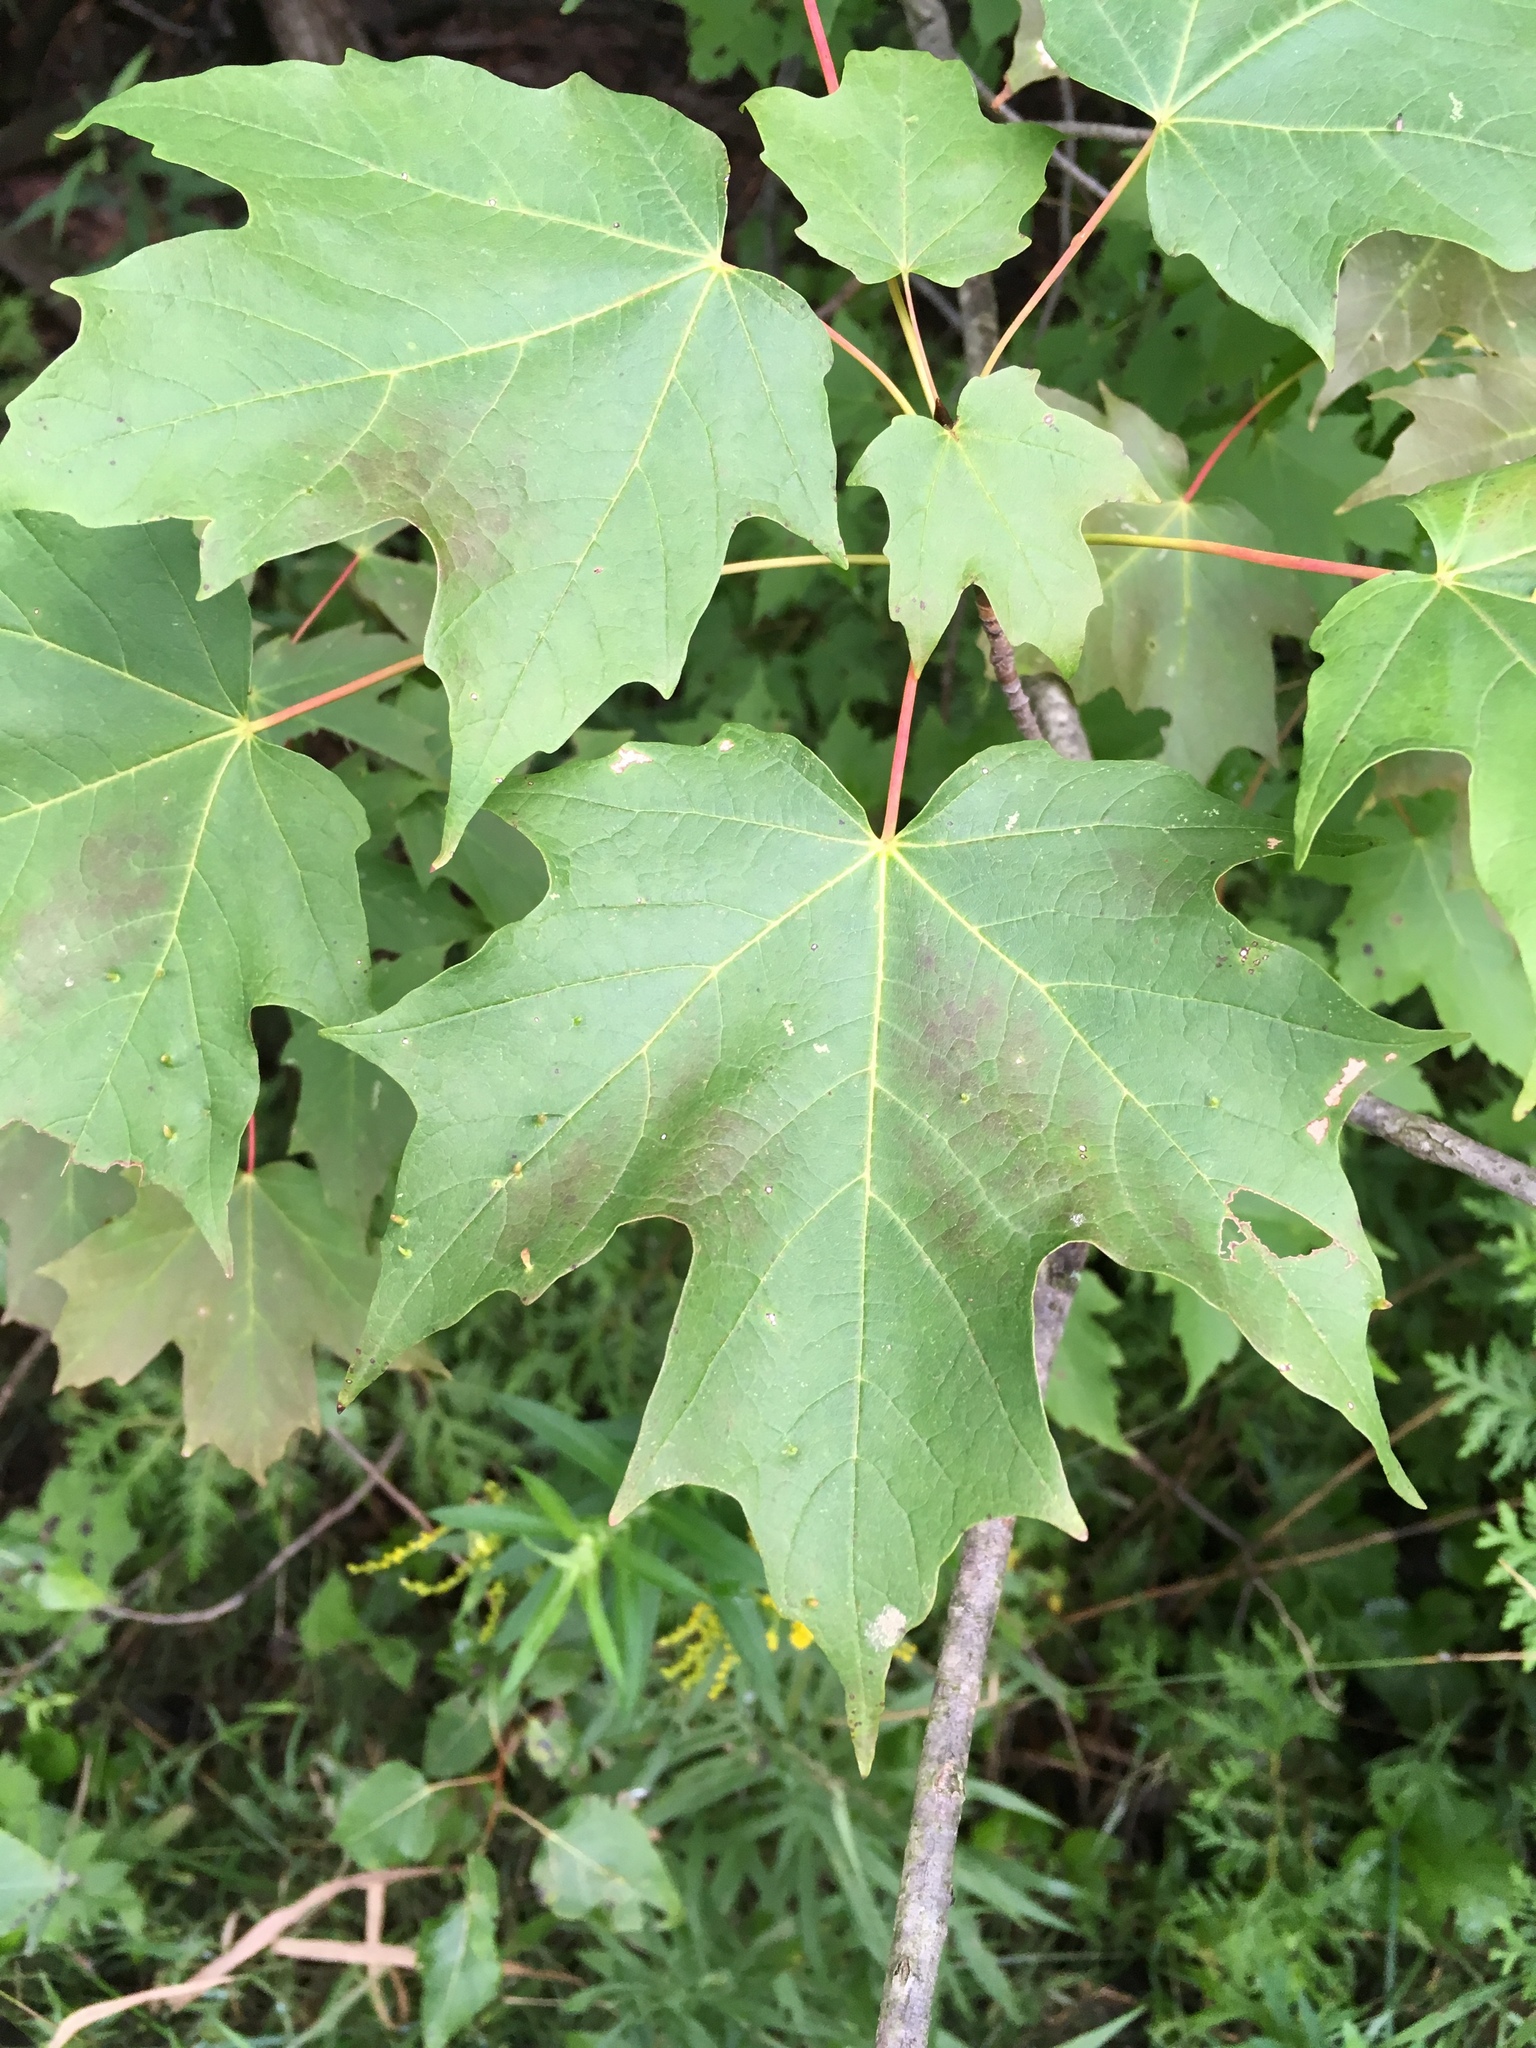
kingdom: Plantae
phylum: Tracheophyta
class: Magnoliopsida
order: Sapindales
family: Sapindaceae
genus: Acer
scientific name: Acer saccharum
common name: Sugar maple
